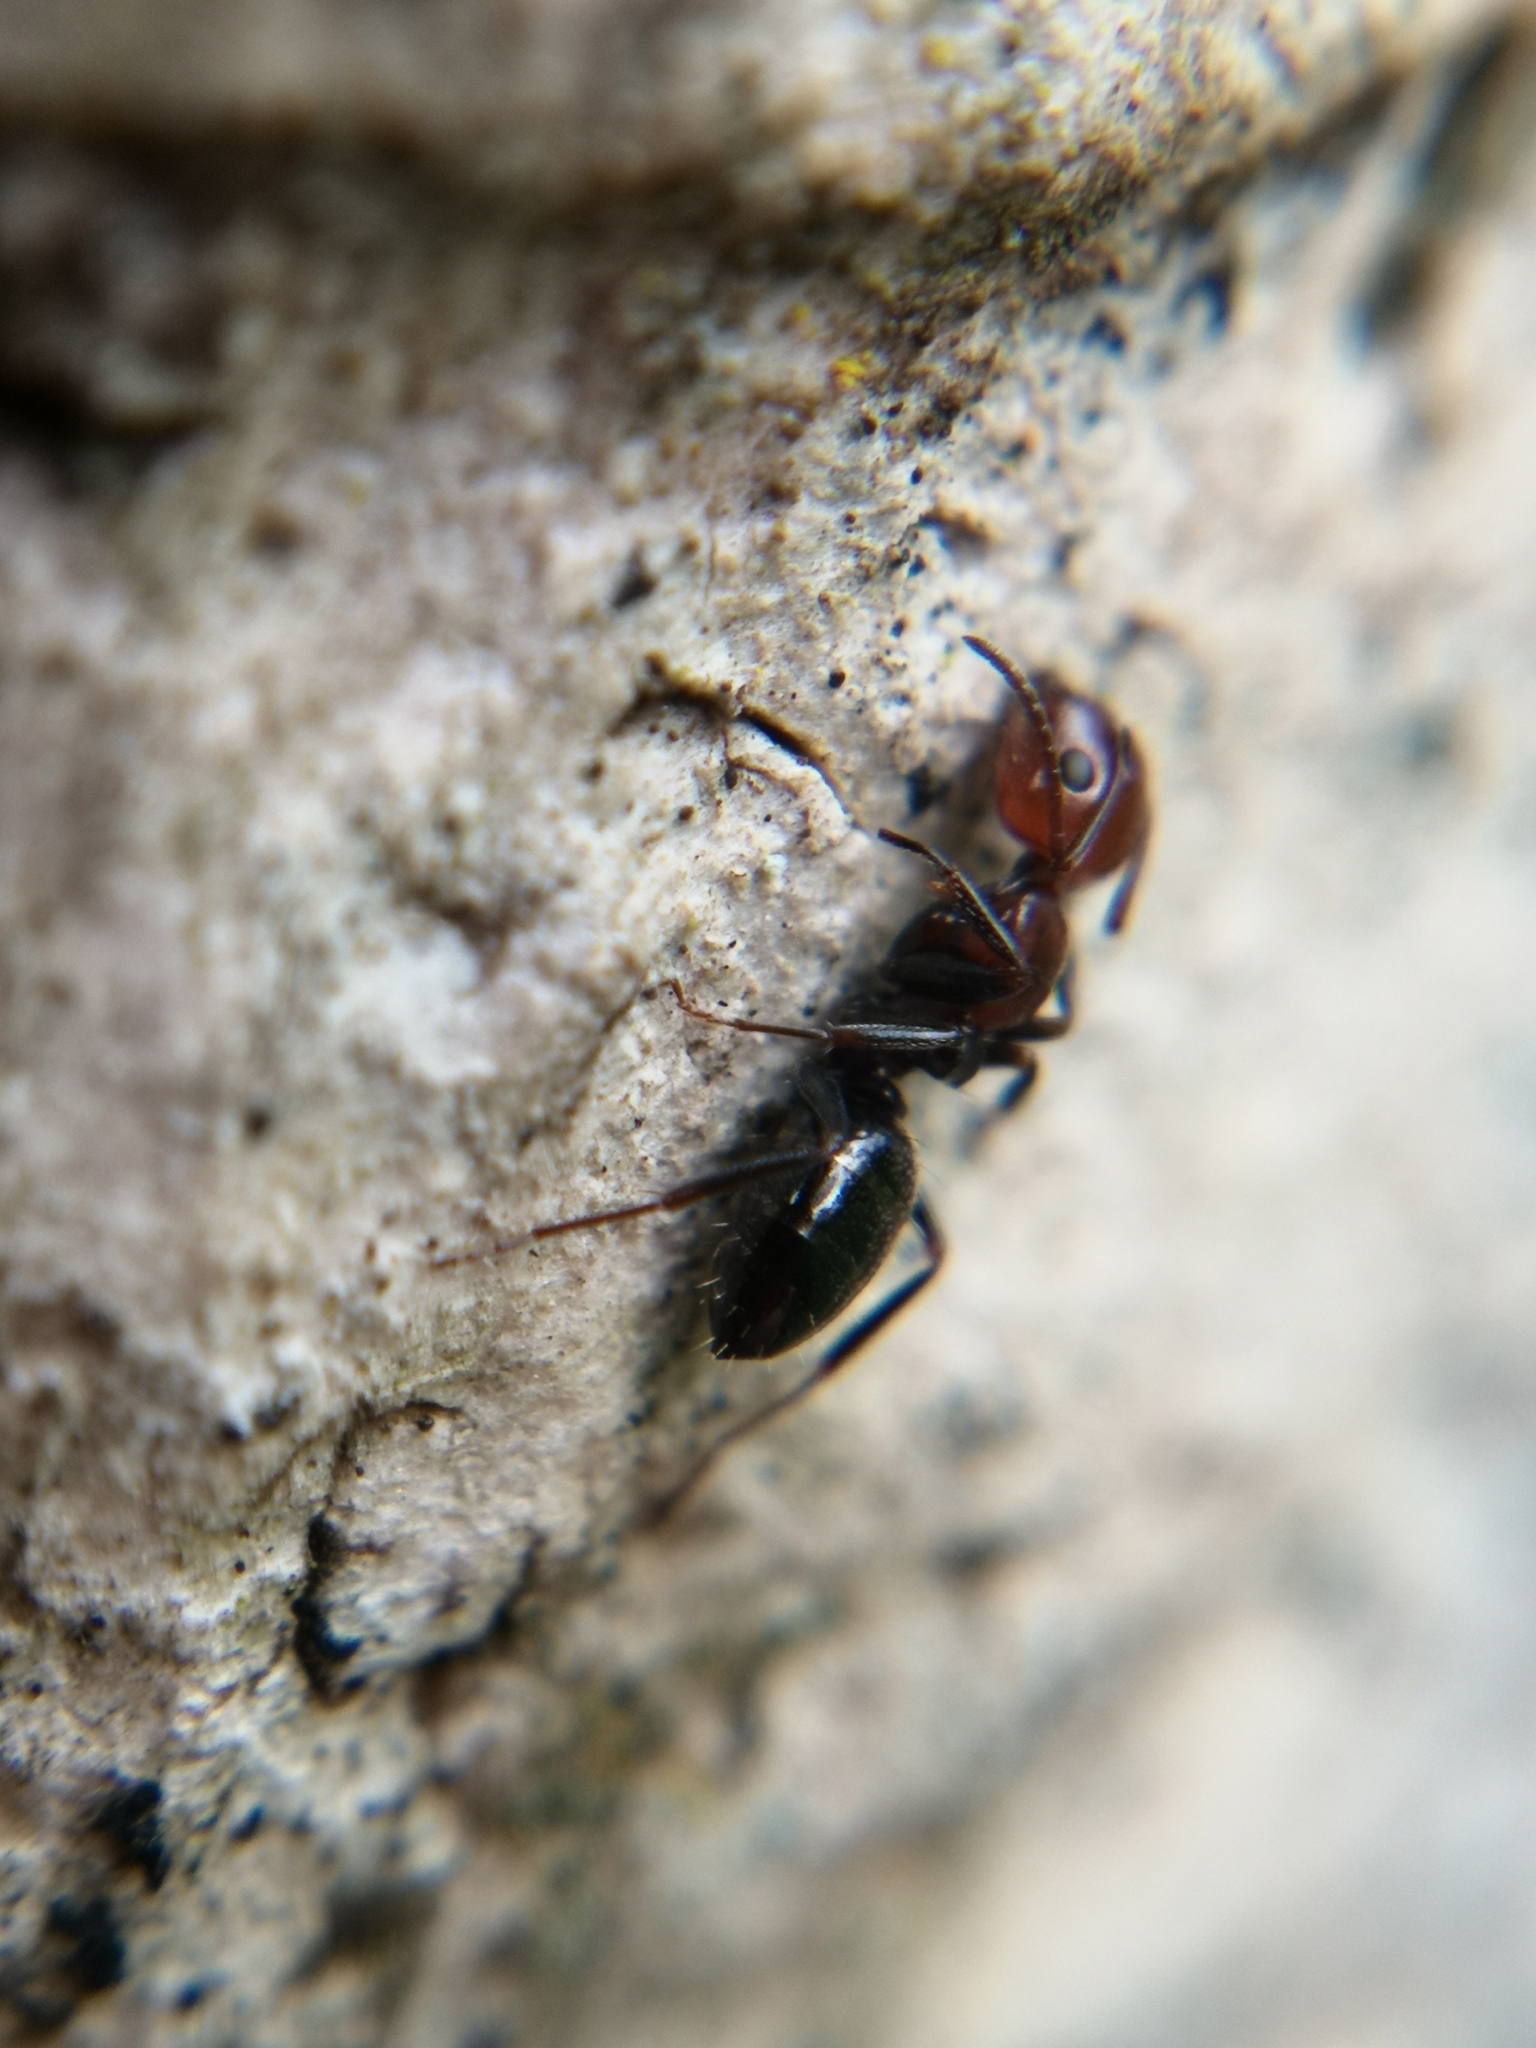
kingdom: Animalia
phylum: Arthropoda
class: Insecta
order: Hymenoptera
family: Formicidae
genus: Camponotus
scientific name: Camponotus lateralis
